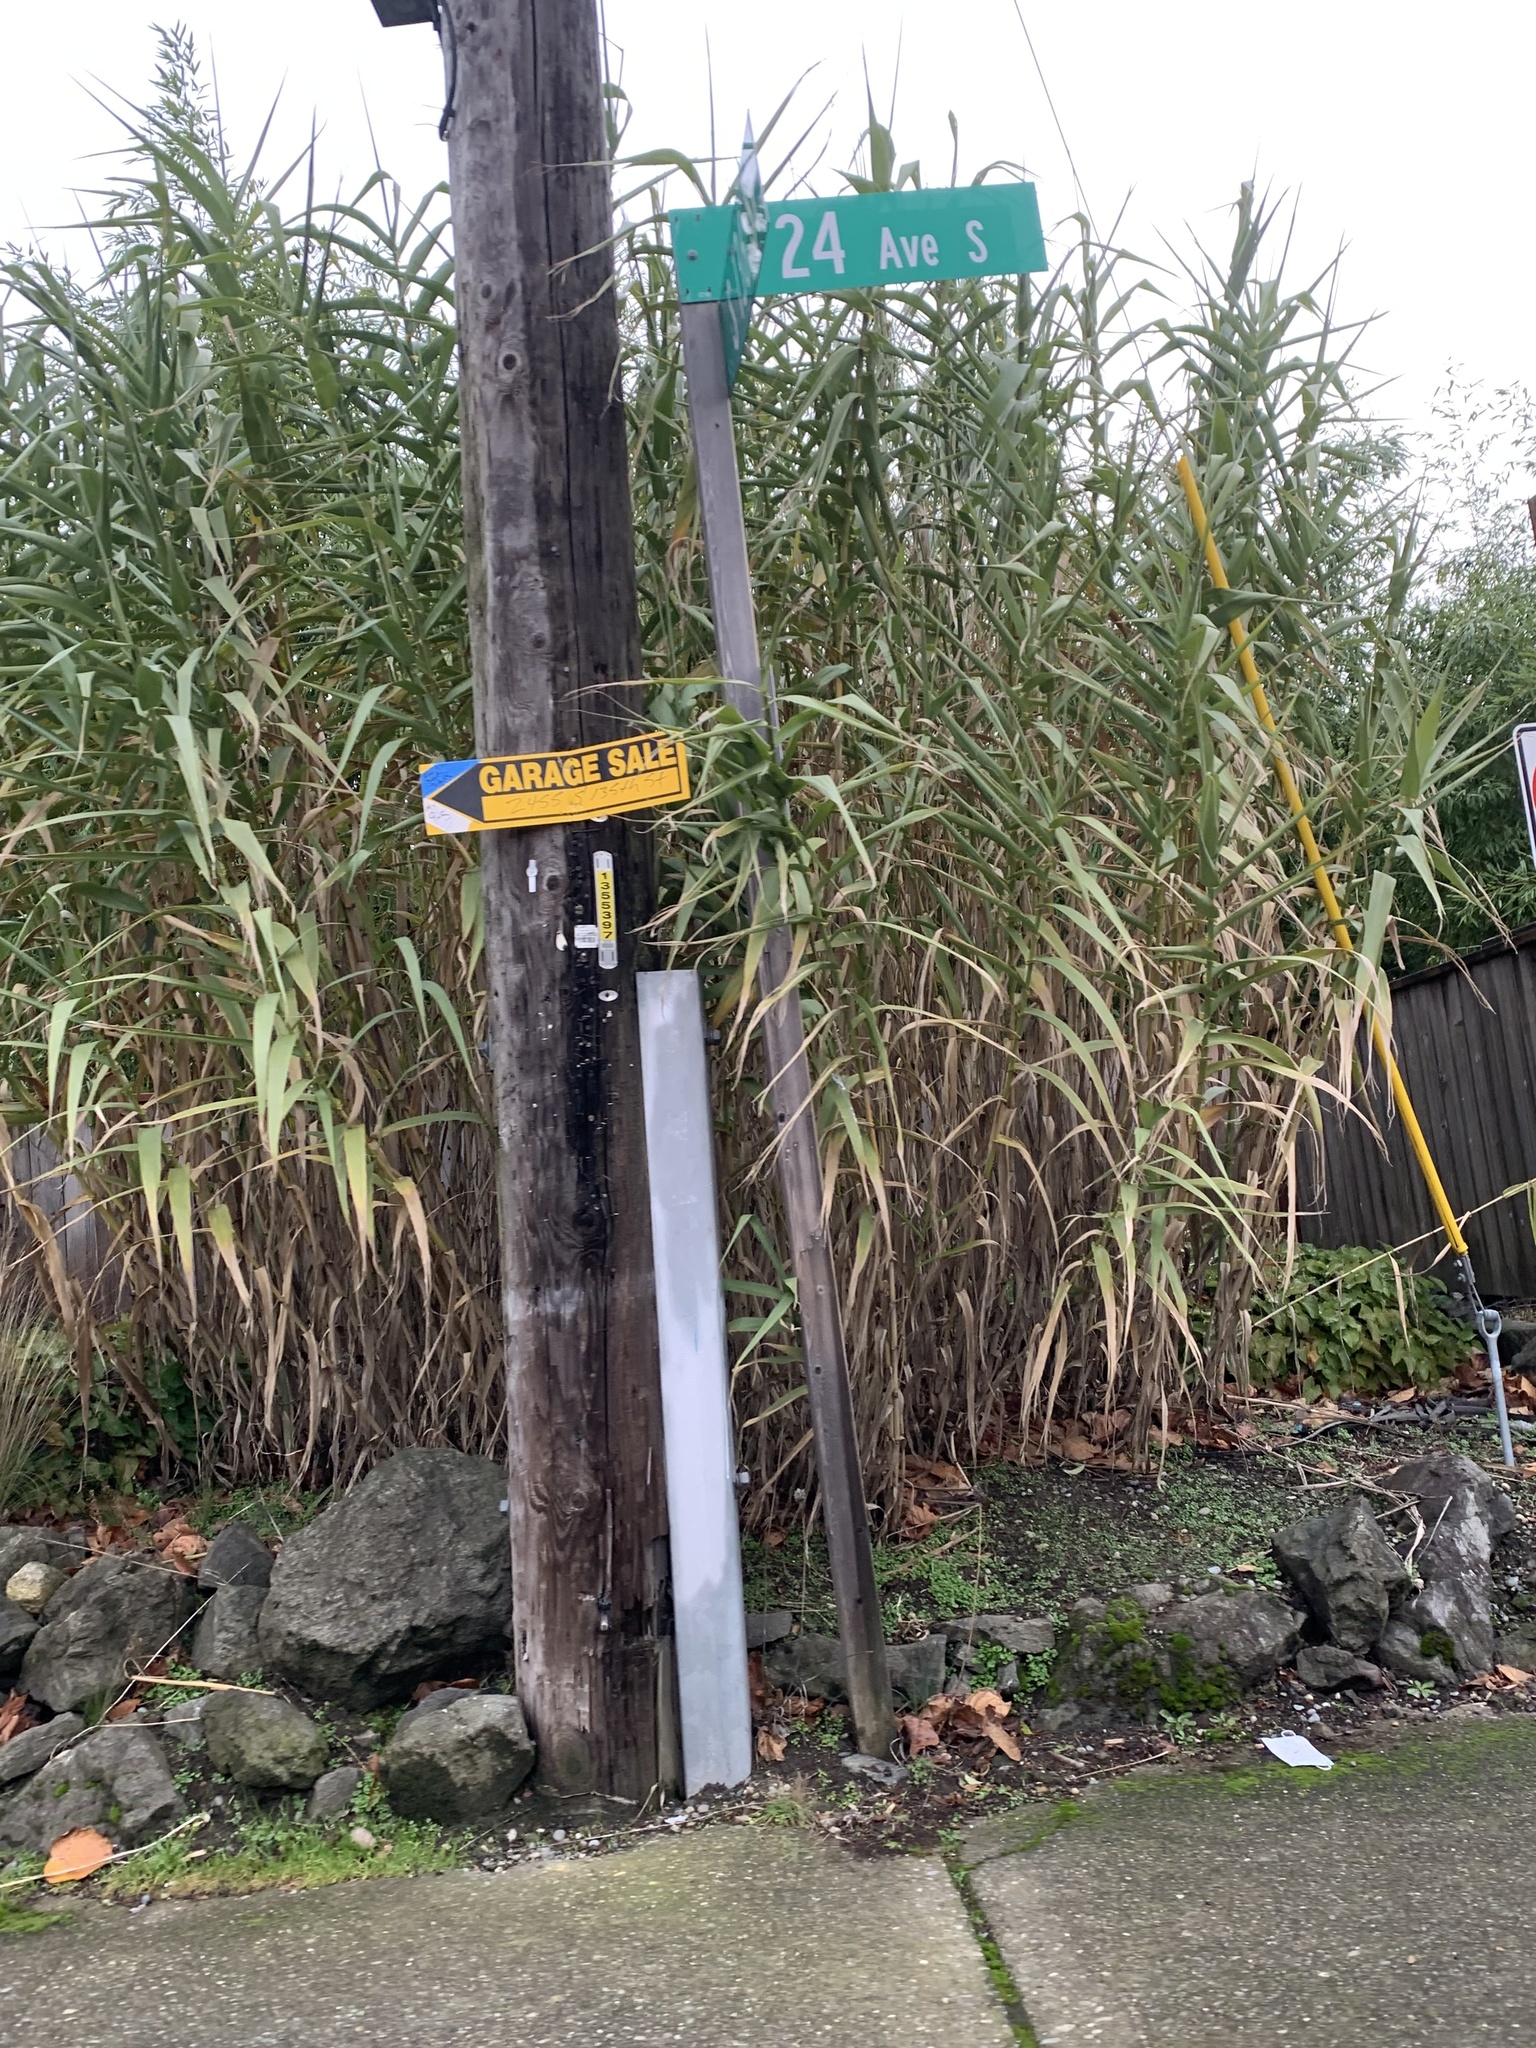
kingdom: Plantae
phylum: Tracheophyta
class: Liliopsida
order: Poales
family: Poaceae
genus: Arundo
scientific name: Arundo donax
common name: Giant reed
